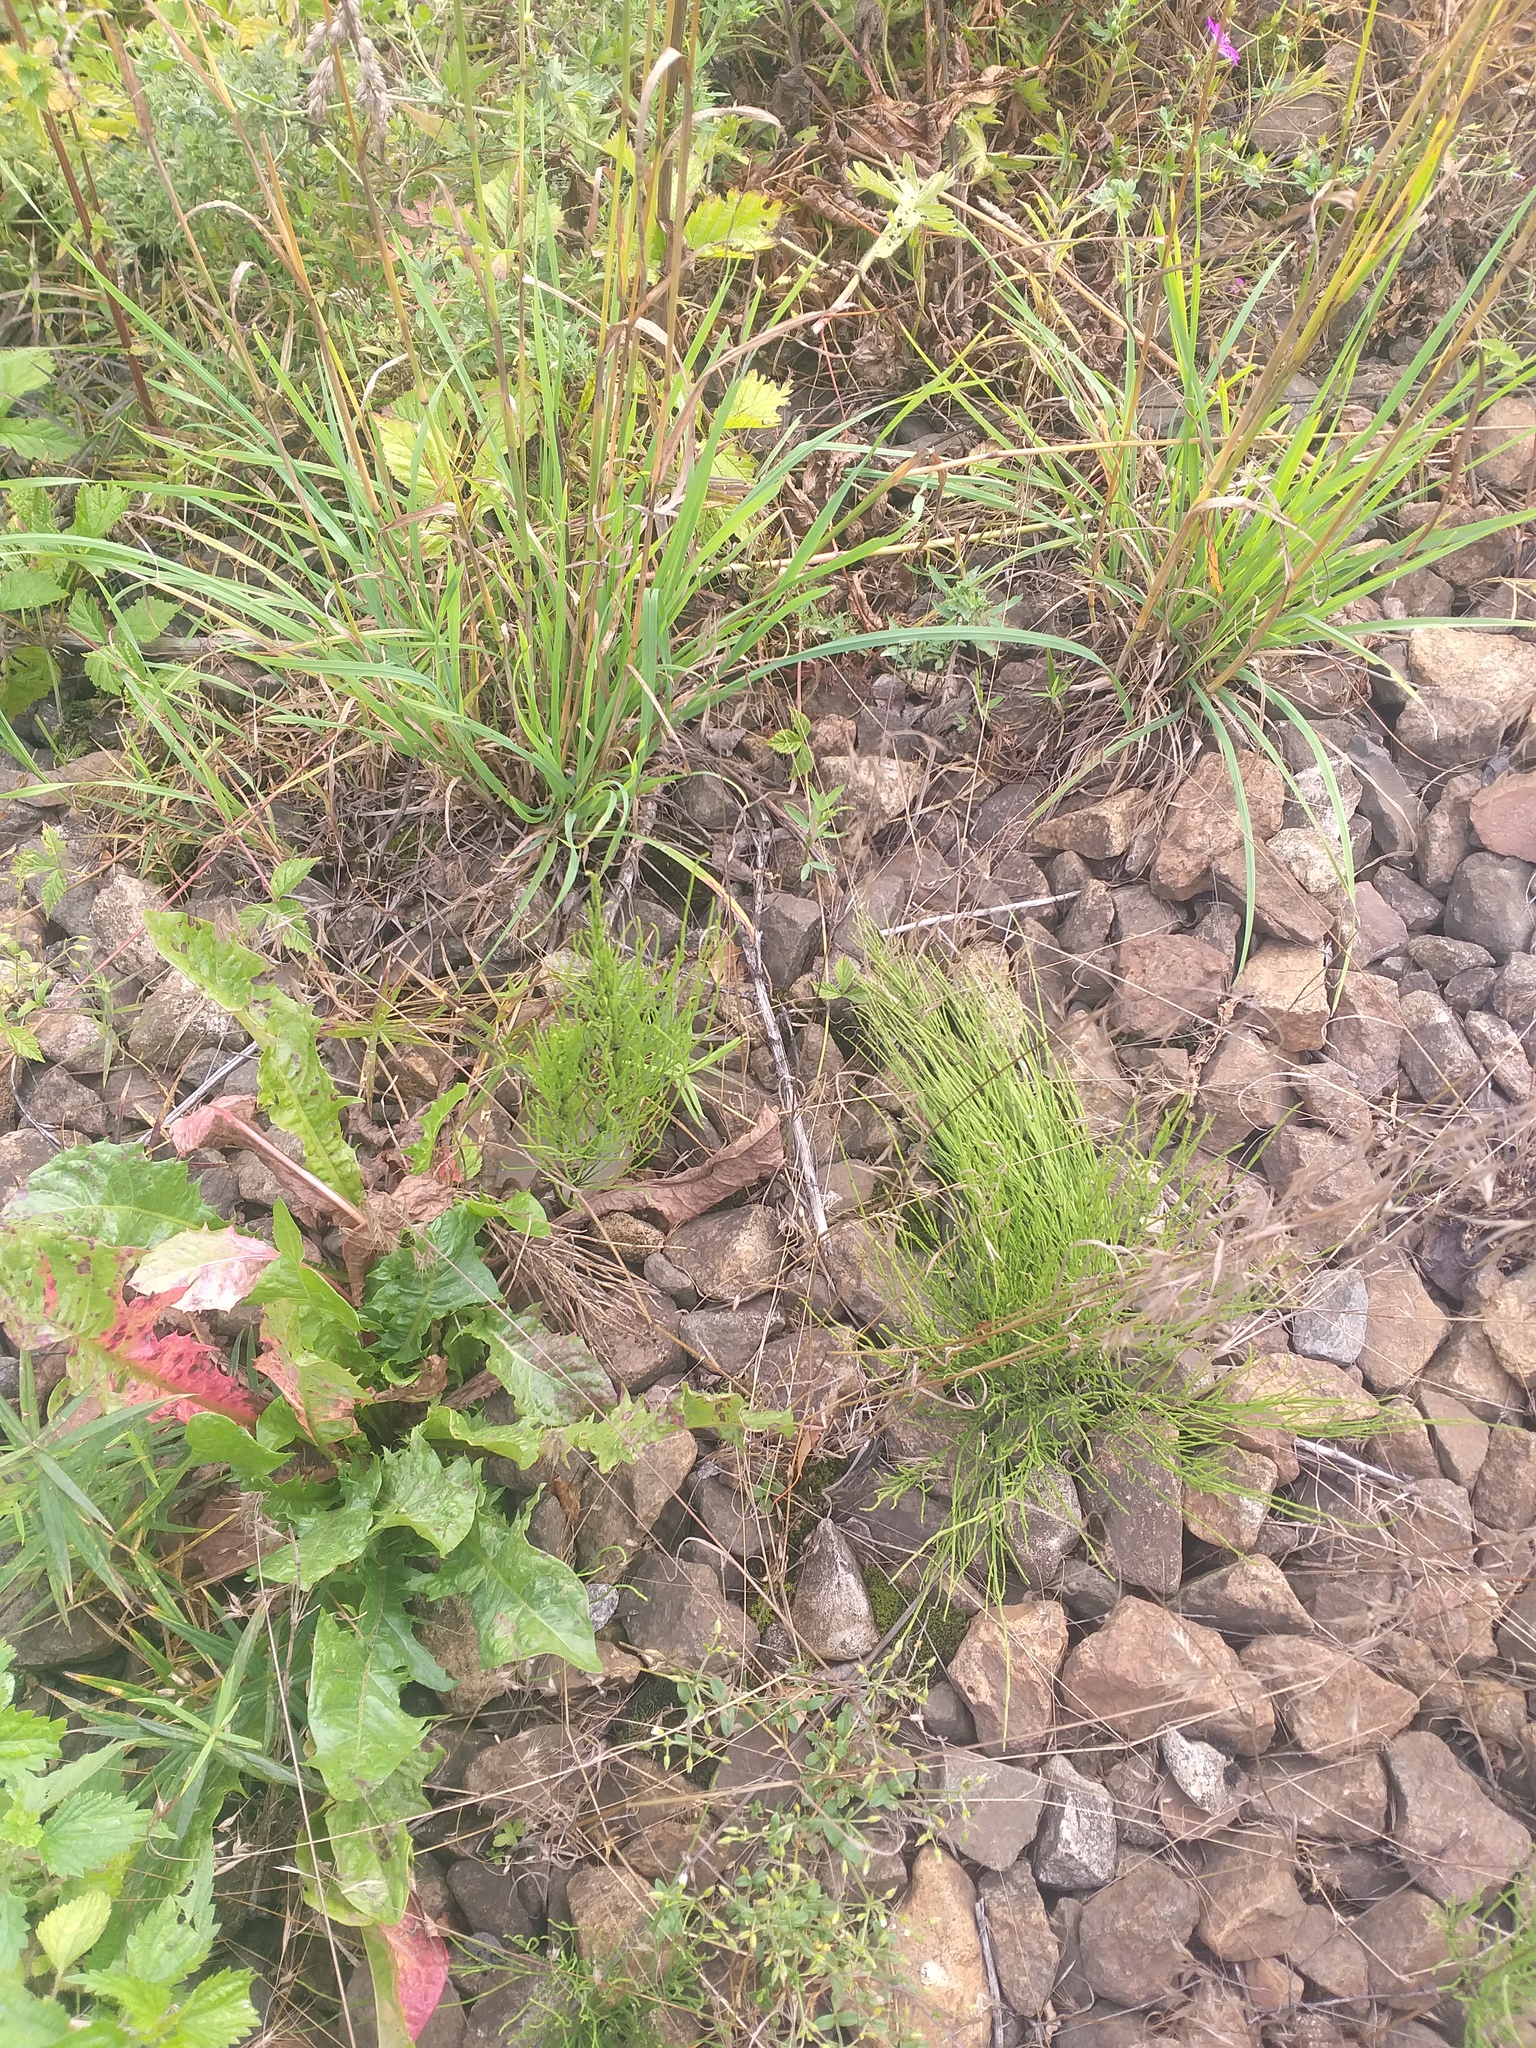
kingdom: Plantae
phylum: Tracheophyta
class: Polypodiopsida
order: Equisetales
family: Equisetaceae
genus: Equisetum
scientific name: Equisetum arvense
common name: Field horsetail
